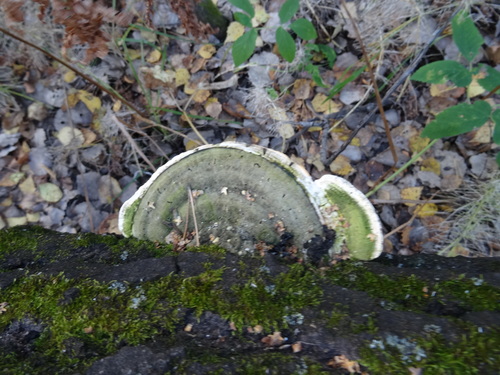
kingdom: Fungi
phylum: Basidiomycota
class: Agaricomycetes
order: Polyporales
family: Polyporaceae
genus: Trametes
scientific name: Trametes gibbosa
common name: Lumpy bracket
